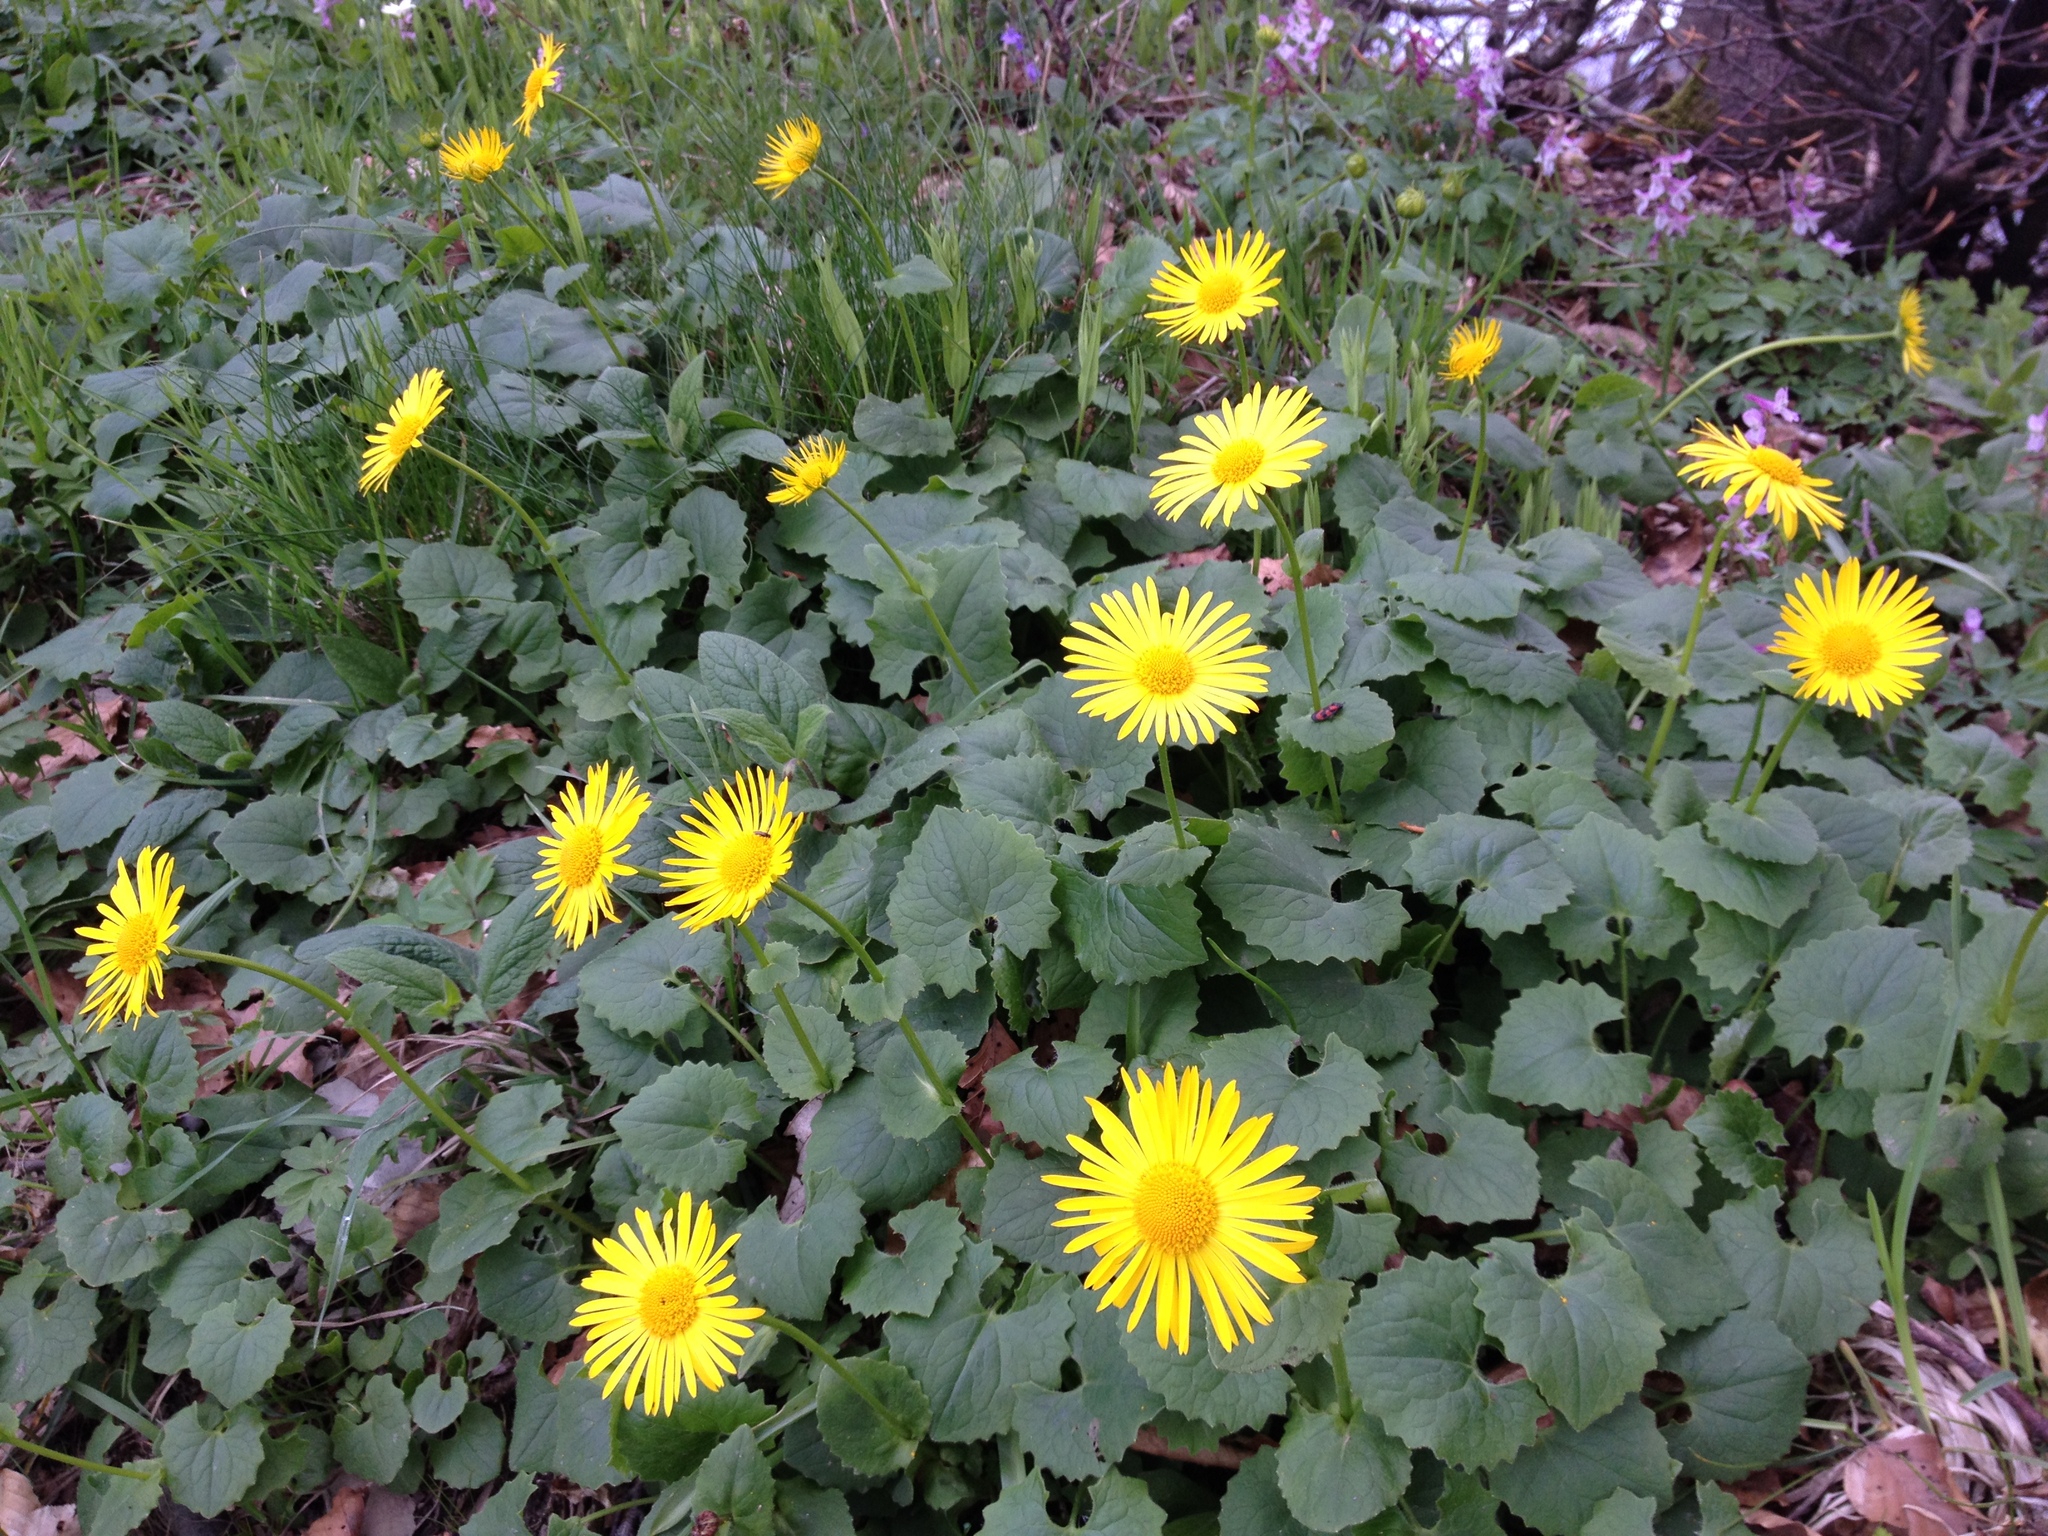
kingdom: Plantae
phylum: Tracheophyta
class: Magnoliopsida
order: Asterales
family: Asteraceae
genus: Doronicum
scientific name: Doronicum columnae
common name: Eastern leopard's-bane
